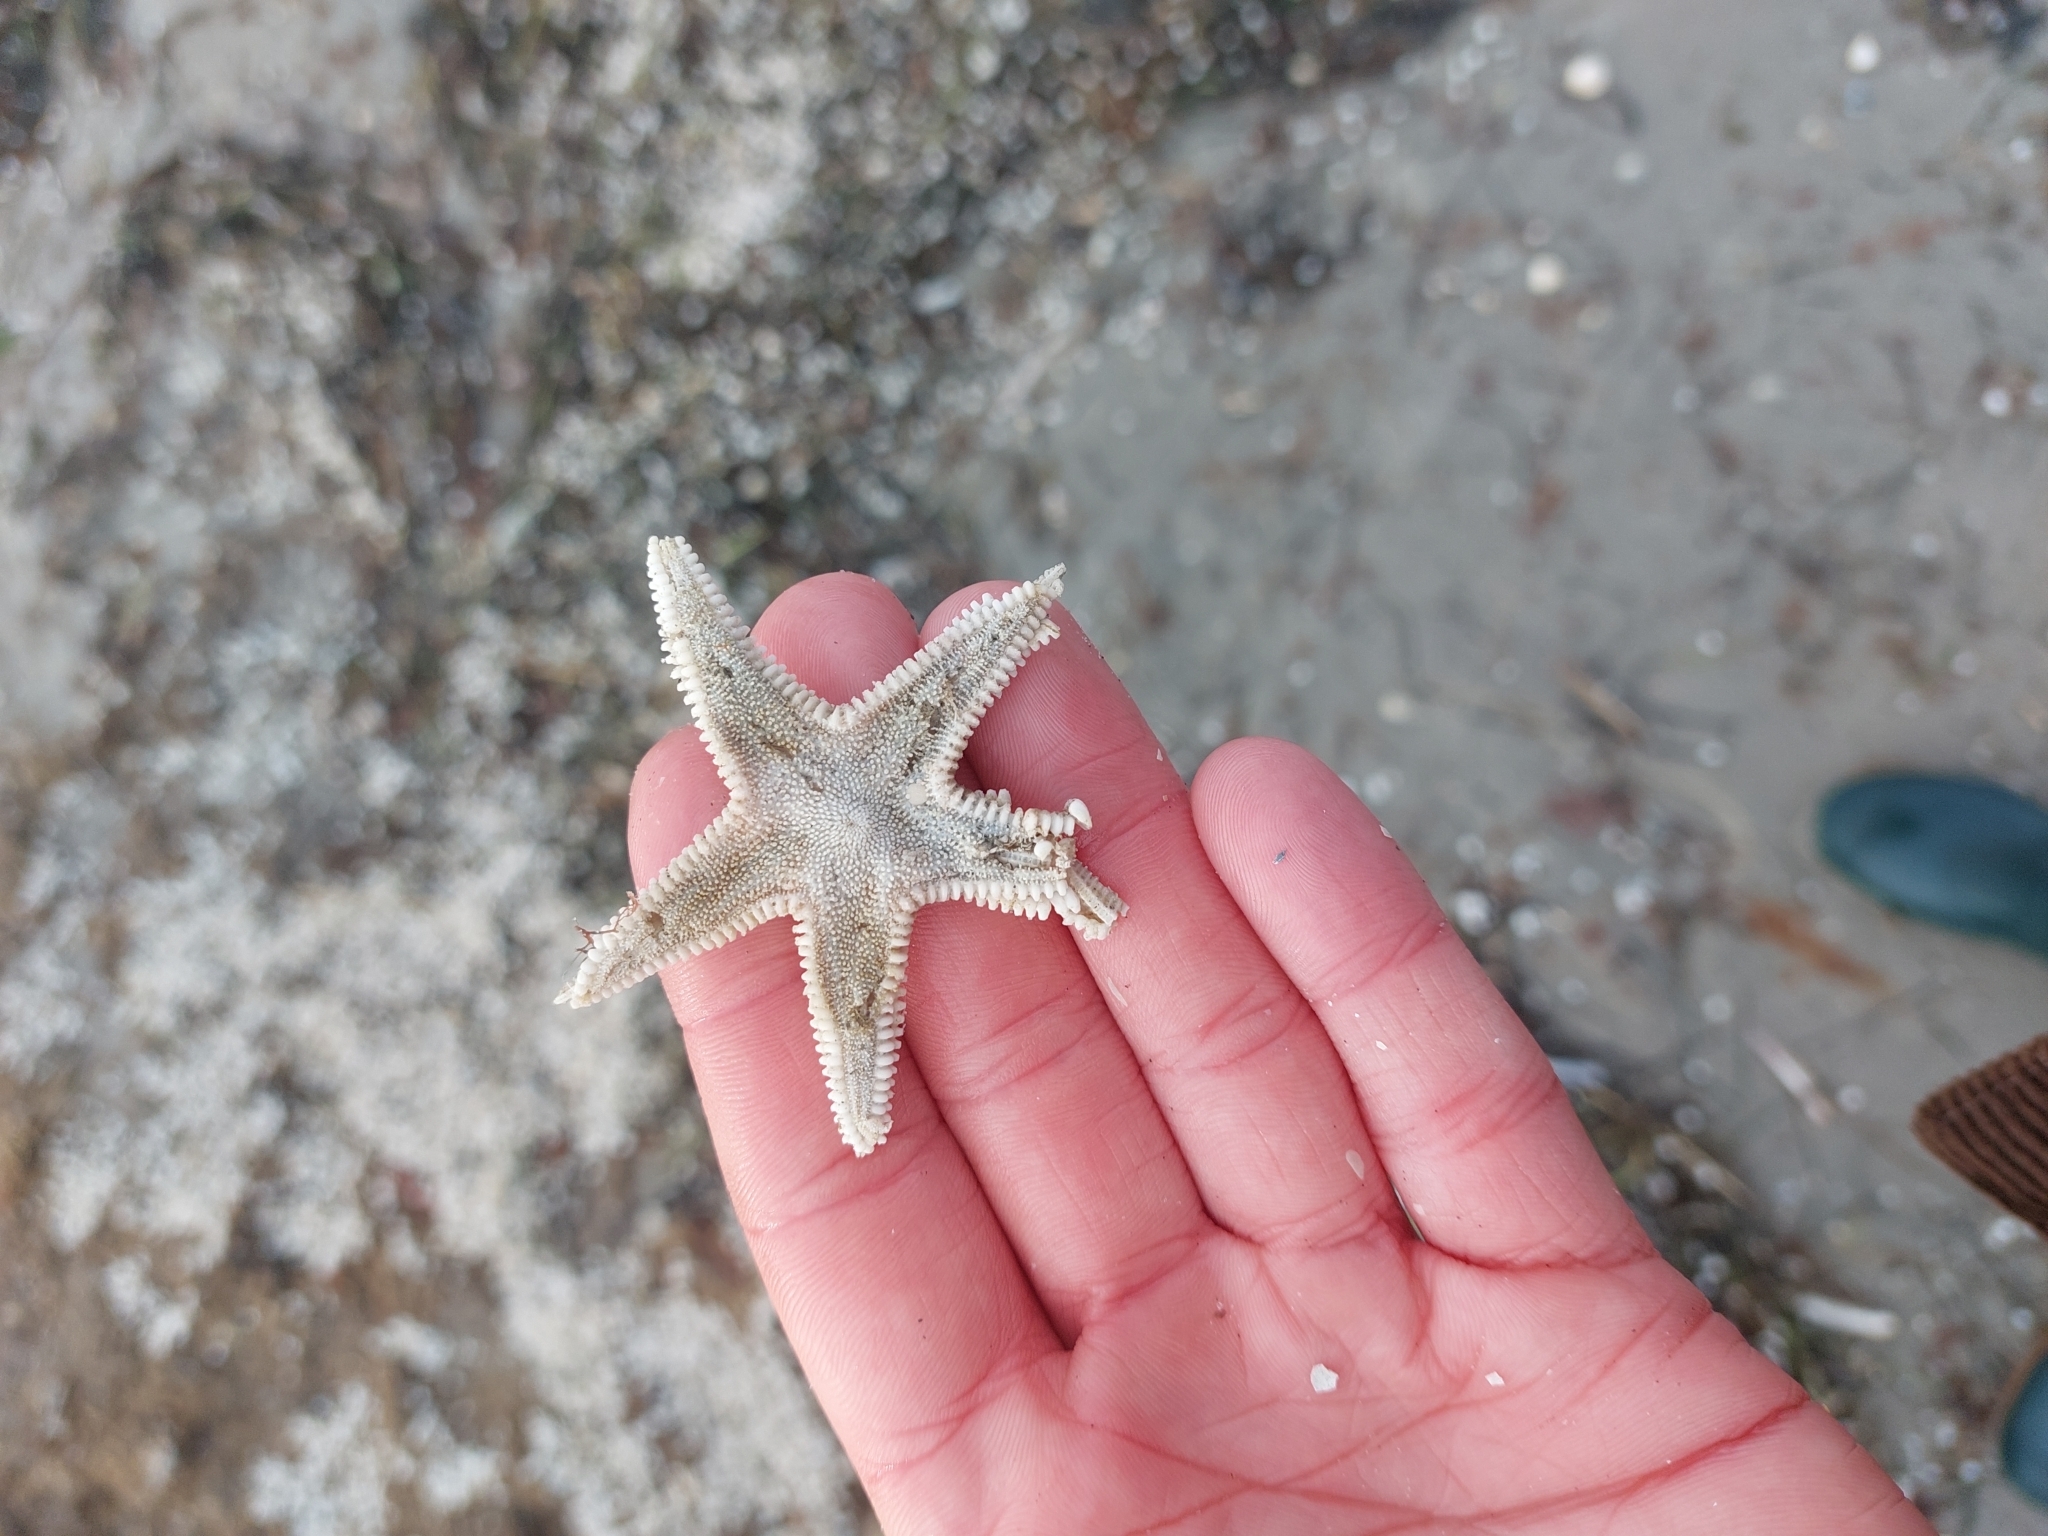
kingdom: Animalia
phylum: Echinodermata
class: Asteroidea
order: Paxillosida
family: Astropectinidae
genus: Astropecten
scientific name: Astropecten irregularis
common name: Sand star
